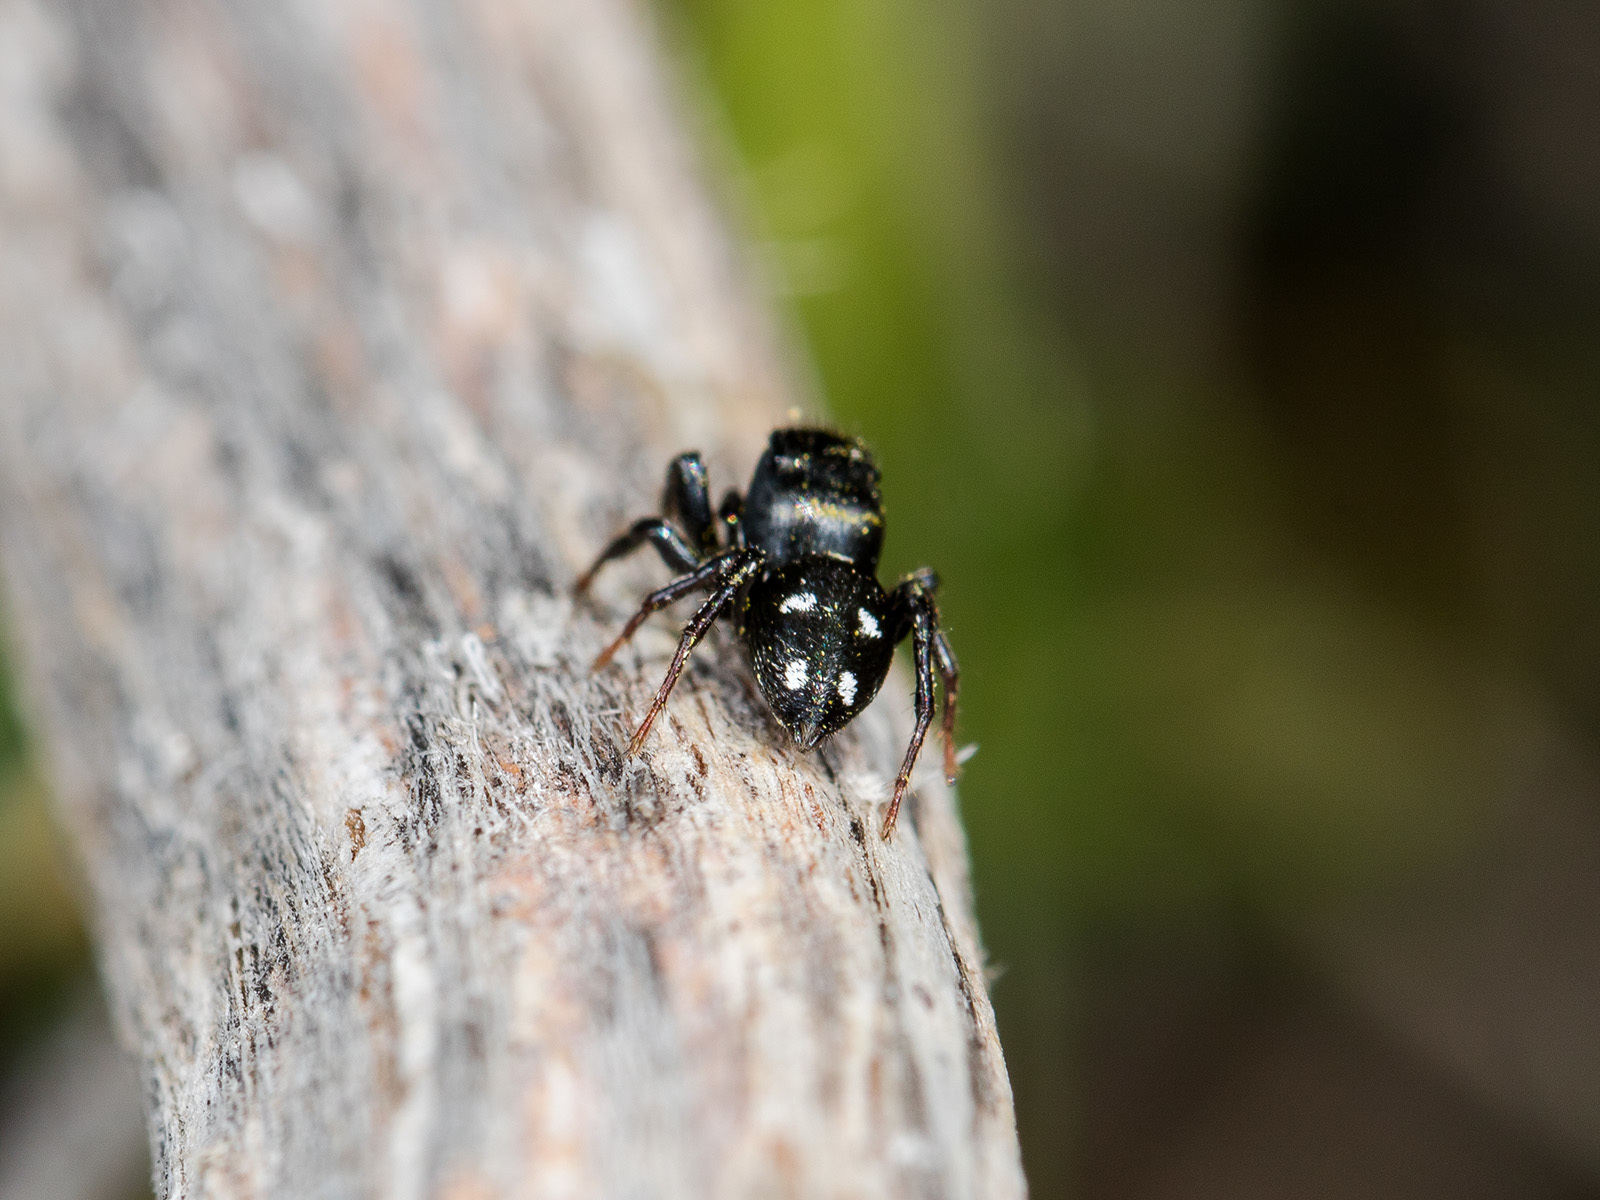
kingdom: Animalia
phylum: Arthropoda
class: Arachnida
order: Araneae
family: Salticidae
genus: Heliophanus
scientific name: Heliophanus chovdensis
